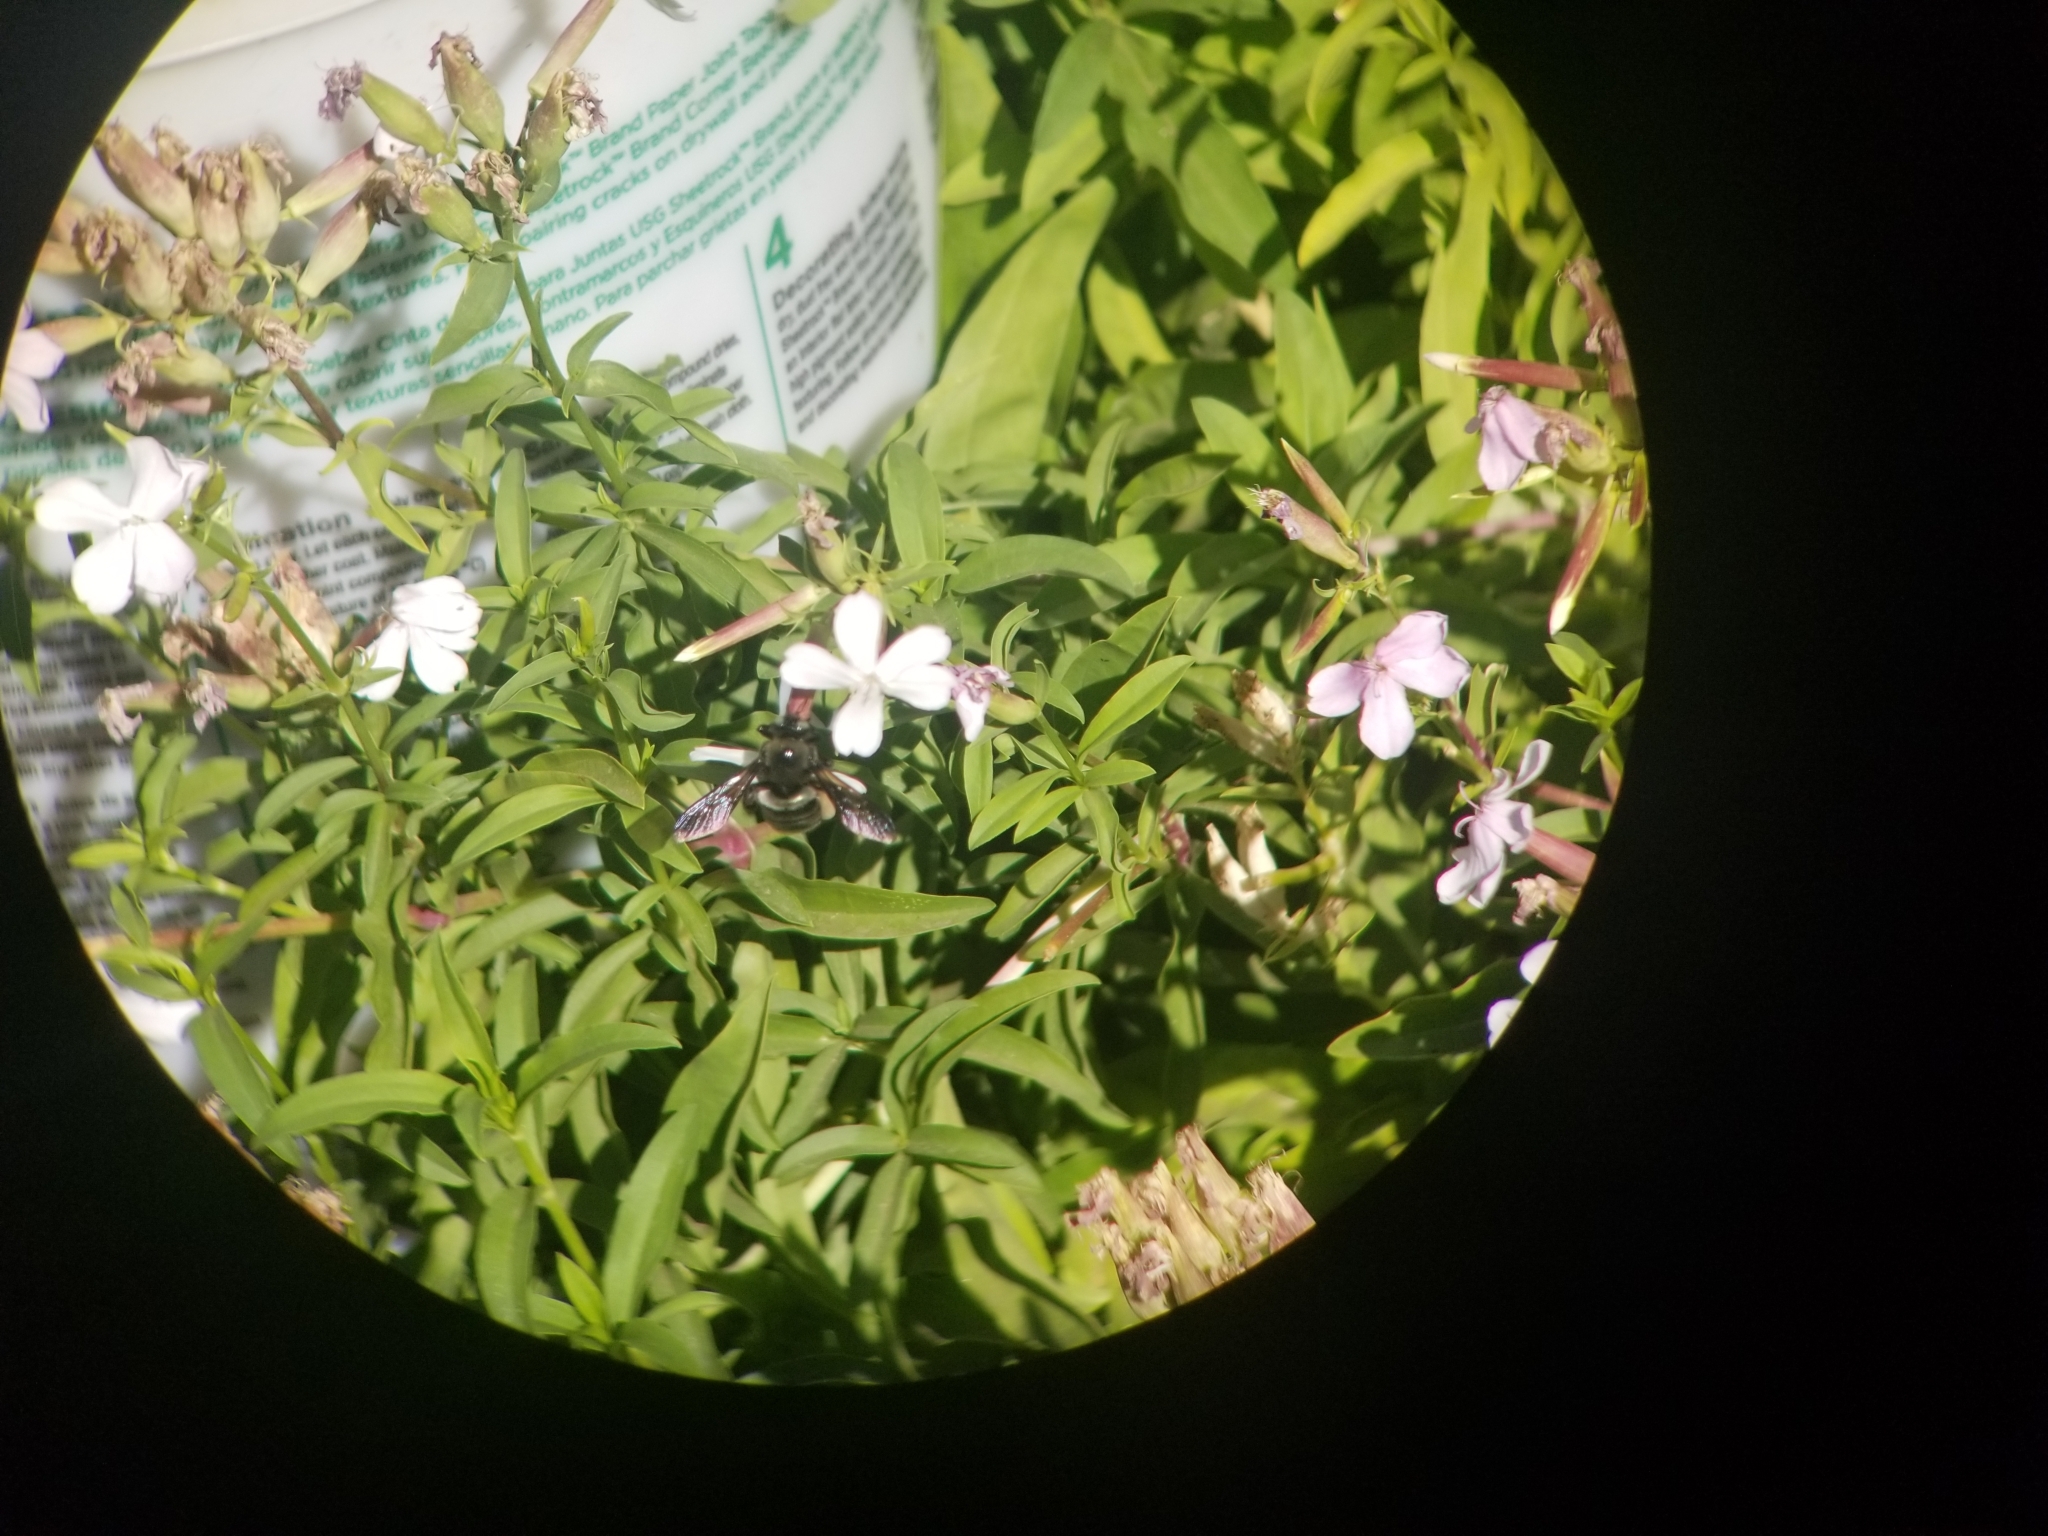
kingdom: Animalia
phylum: Arthropoda
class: Insecta
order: Hymenoptera
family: Apidae
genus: Xylocopa
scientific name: Xylocopa californica
